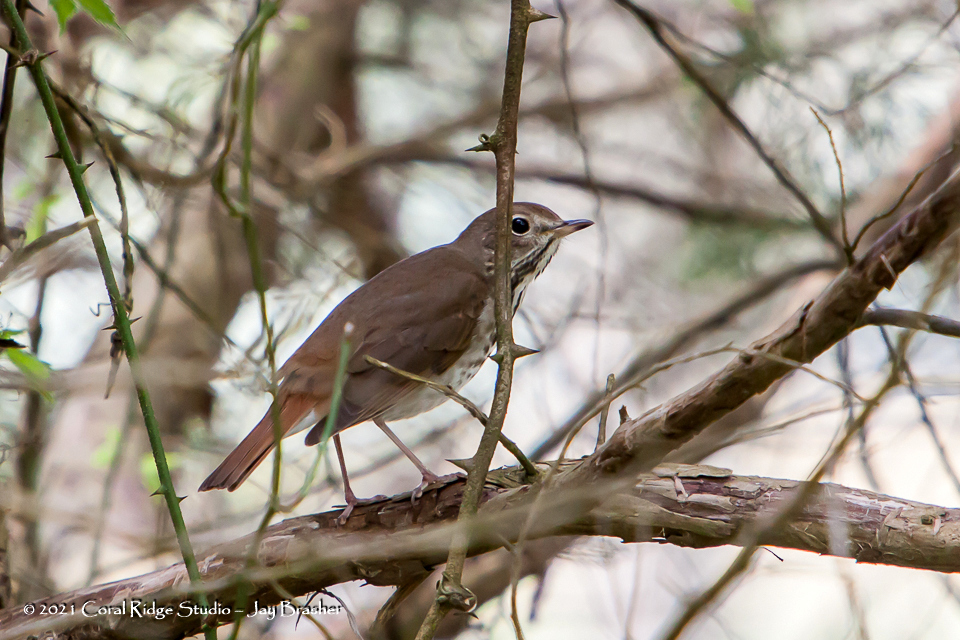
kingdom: Animalia
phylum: Chordata
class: Aves
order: Passeriformes
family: Turdidae
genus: Catharus
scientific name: Catharus guttatus
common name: Hermit thrush
